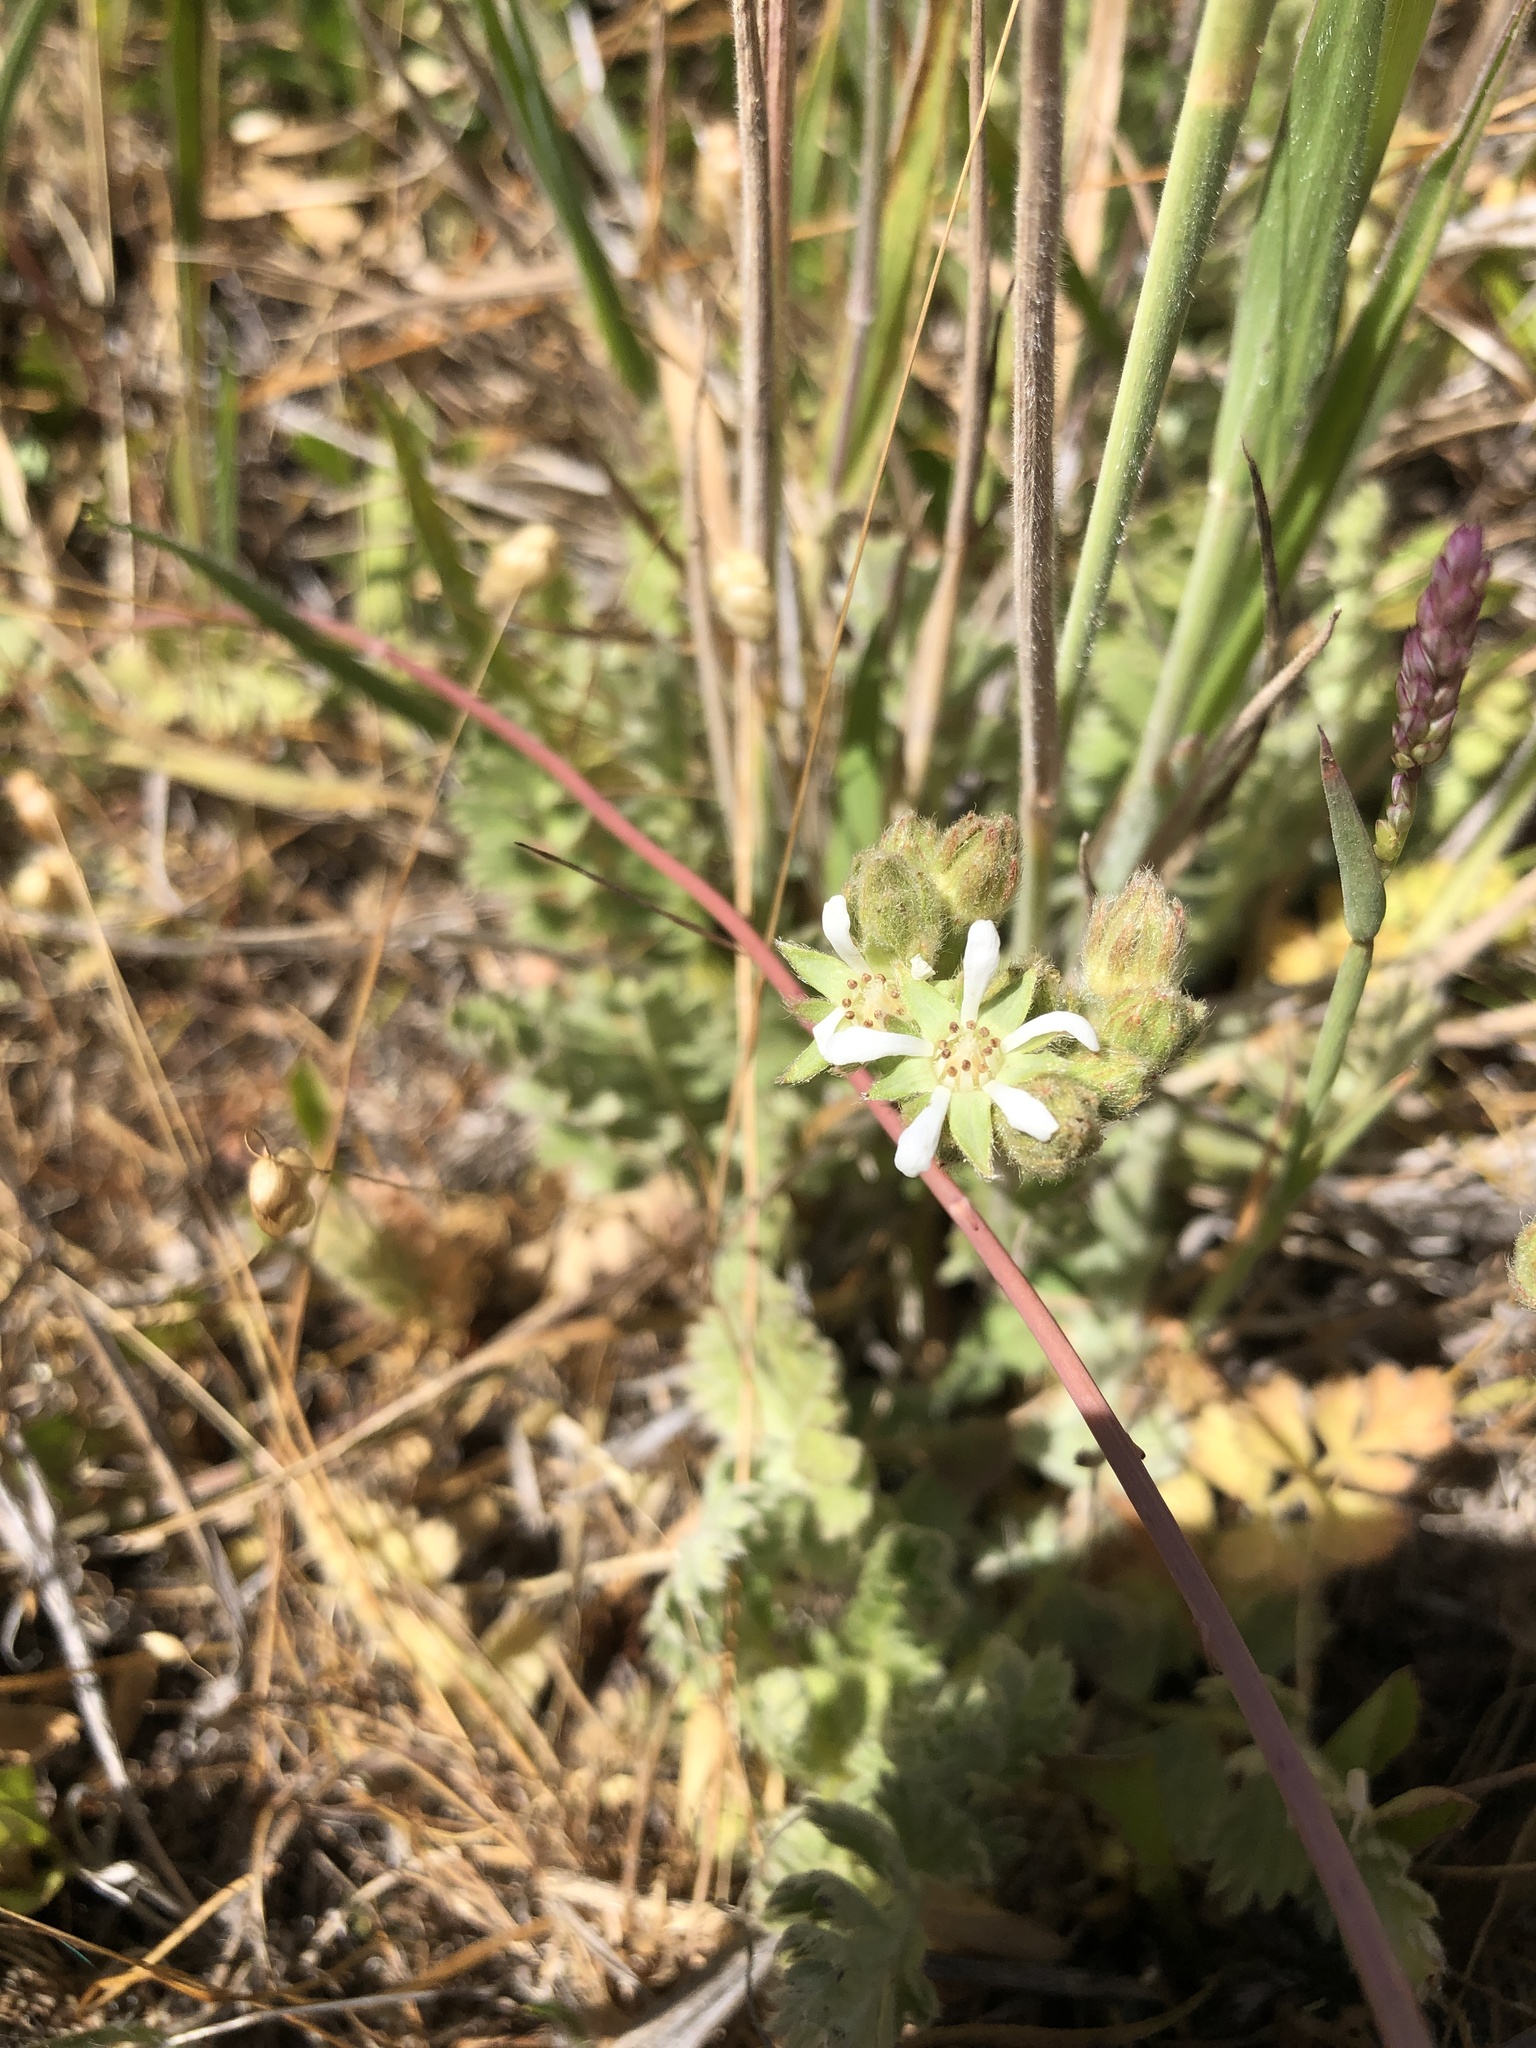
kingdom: Plantae
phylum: Tracheophyta
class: Magnoliopsida
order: Rosales
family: Rosaceae
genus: Potentilla
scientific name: Potentilla marinensis
